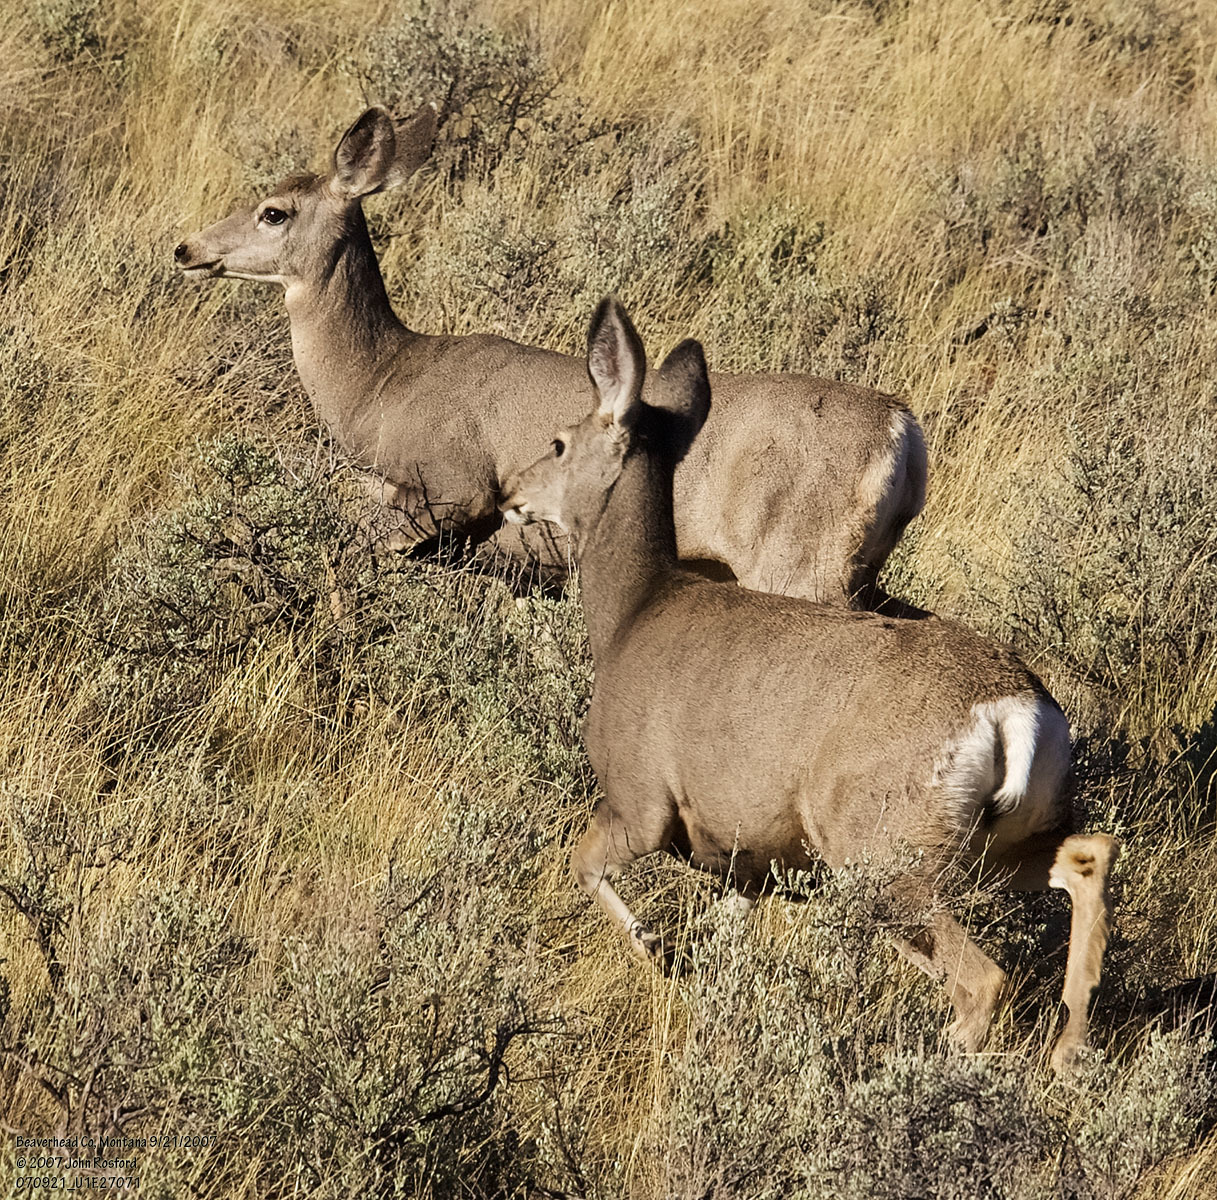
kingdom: Animalia
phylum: Chordata
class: Mammalia
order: Artiodactyla
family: Cervidae
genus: Odocoileus
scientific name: Odocoileus hemionus
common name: Mule deer
